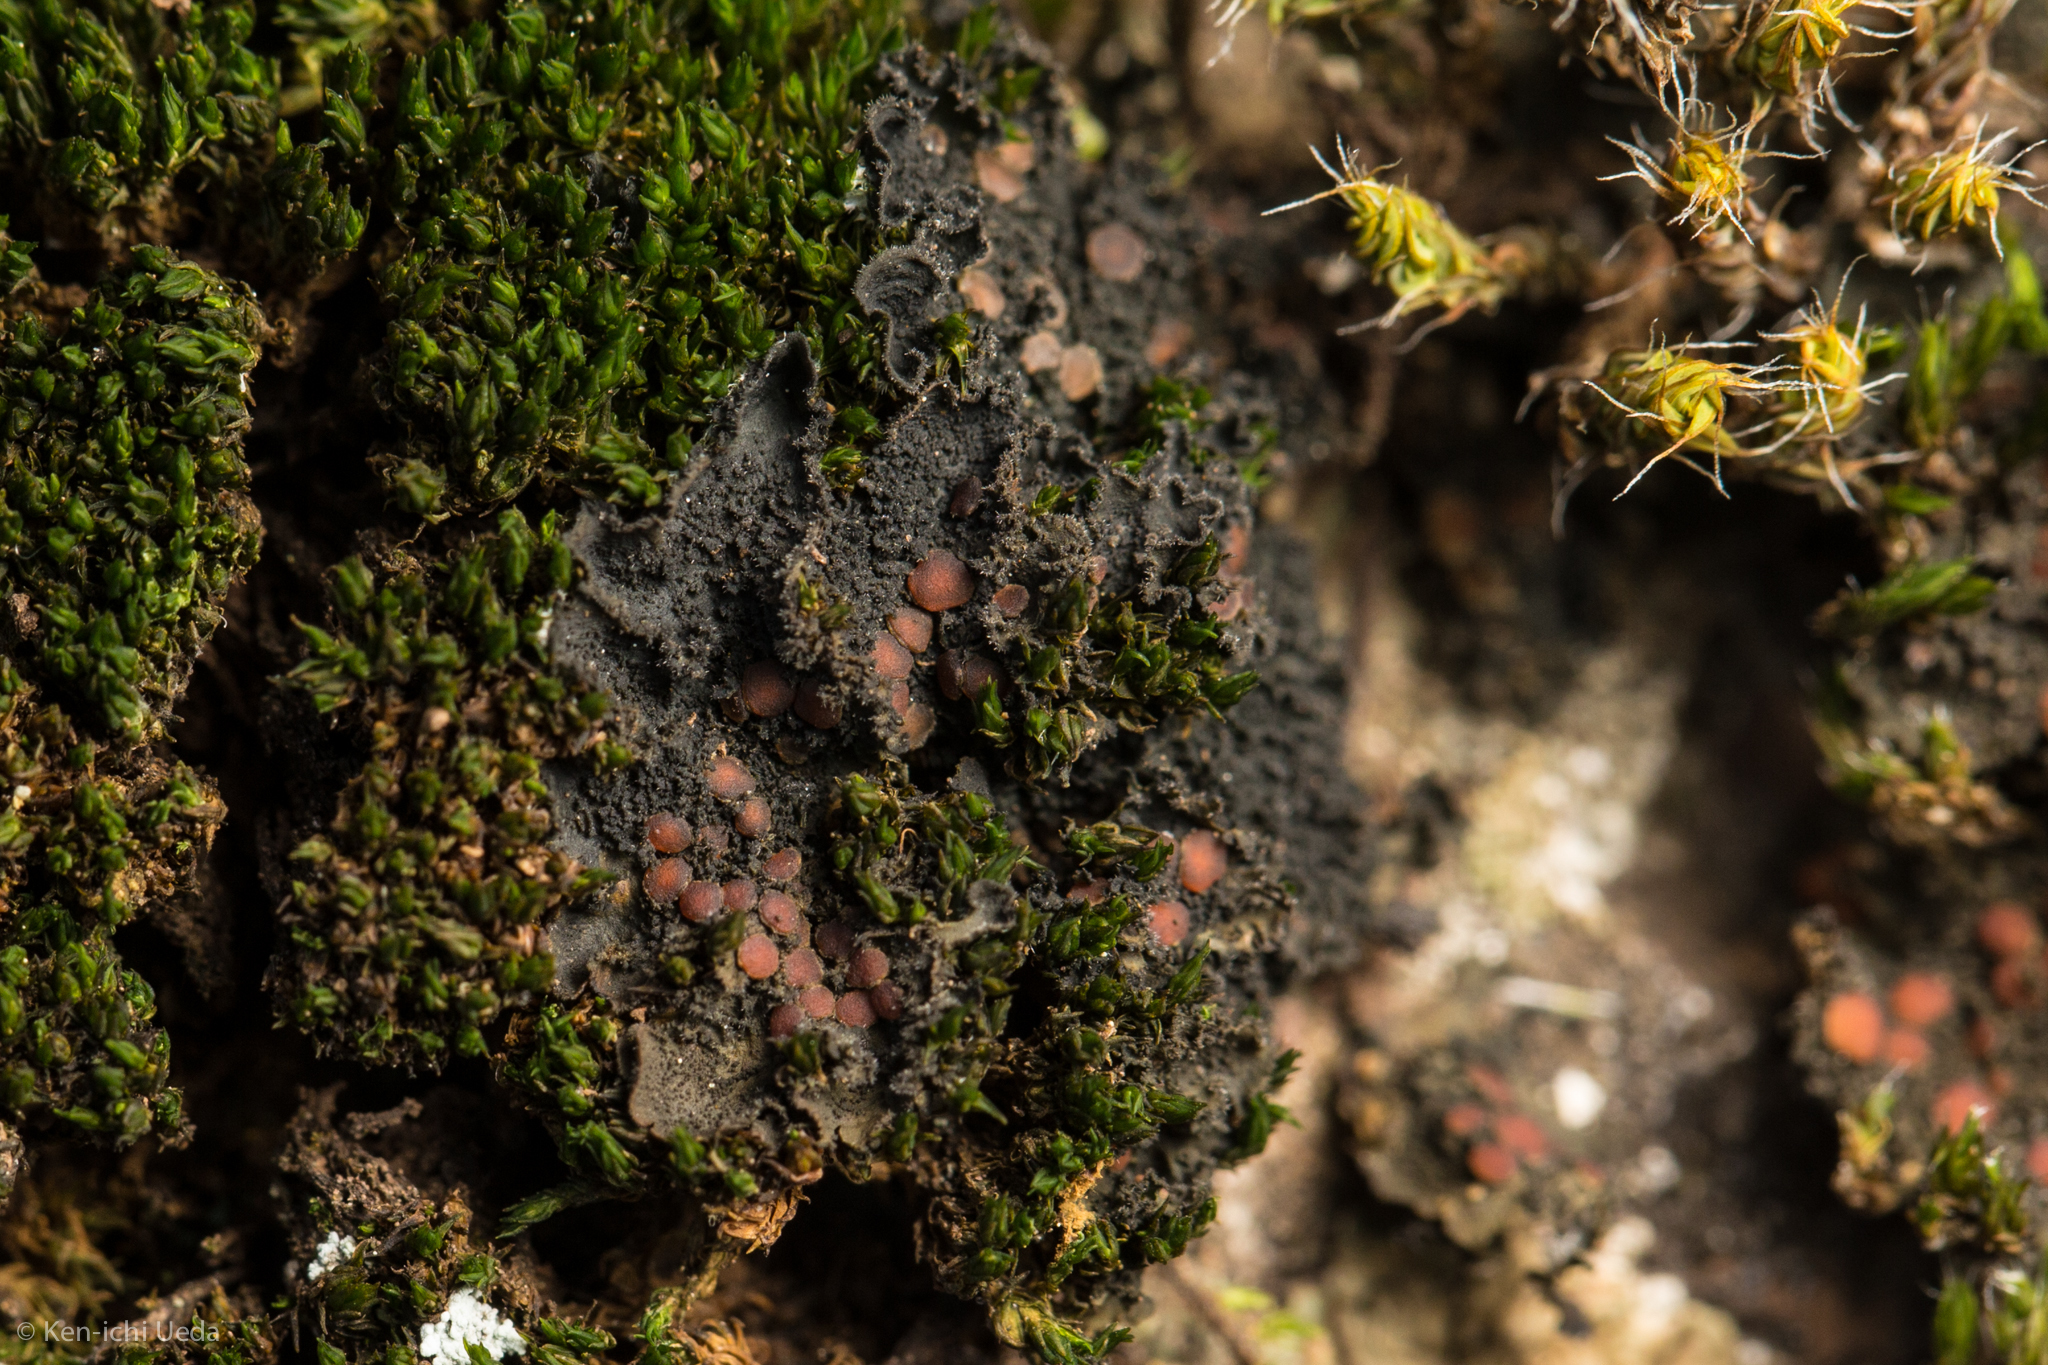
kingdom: Fungi
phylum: Ascomycota
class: Lecanoromycetes
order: Peltigerales
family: Massalongiaceae
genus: Leptochidium
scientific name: Leptochidium albociliatum
